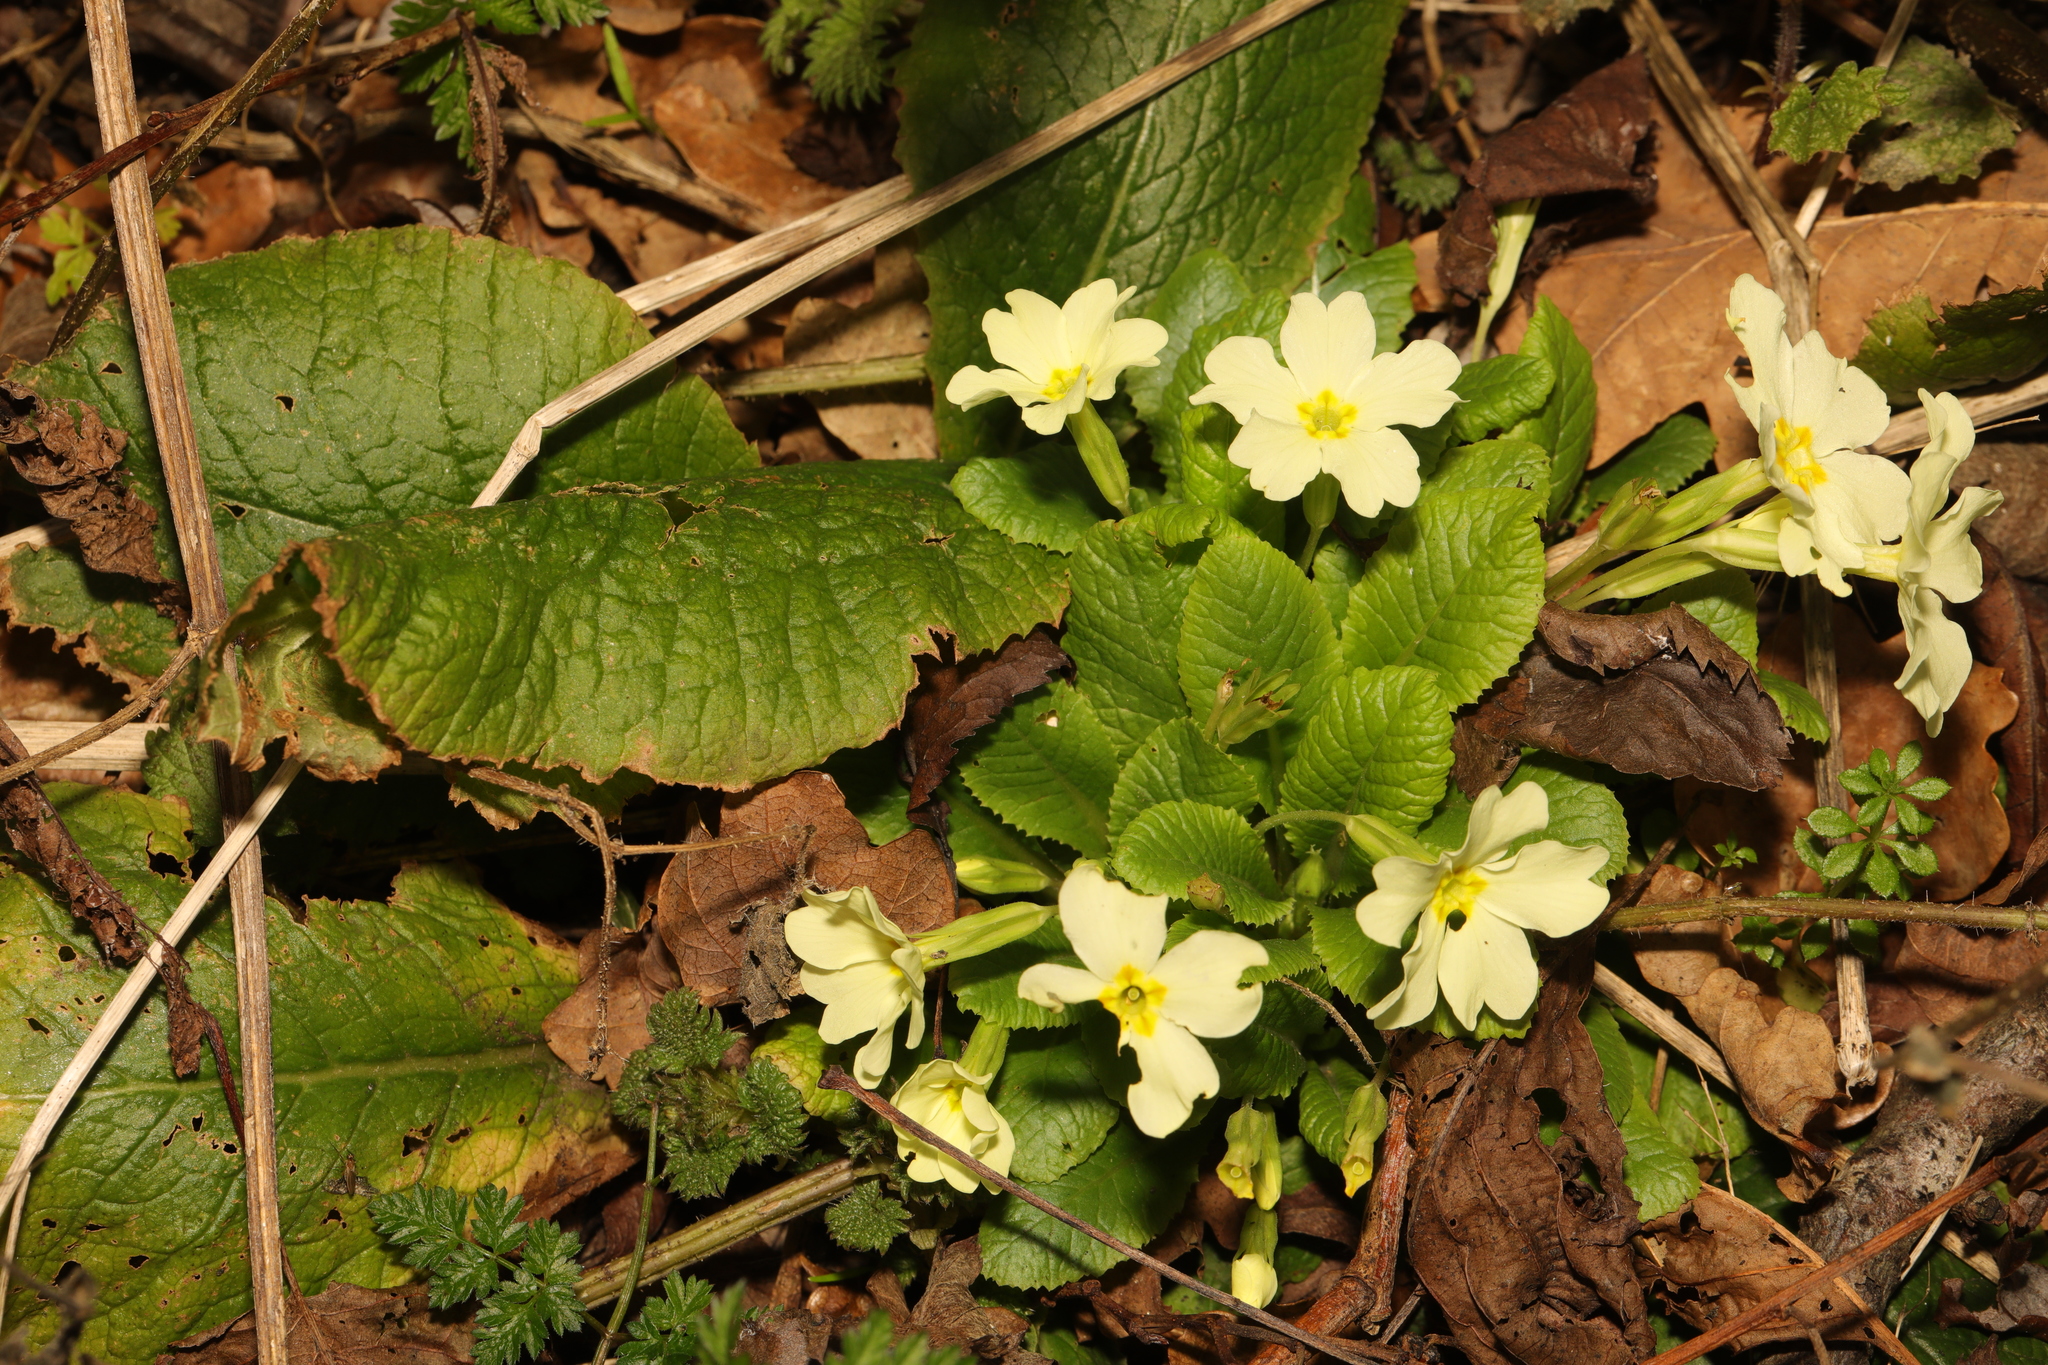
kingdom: Plantae
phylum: Tracheophyta
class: Magnoliopsida
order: Ericales
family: Primulaceae
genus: Primula
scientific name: Primula vulgaris
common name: Primrose
